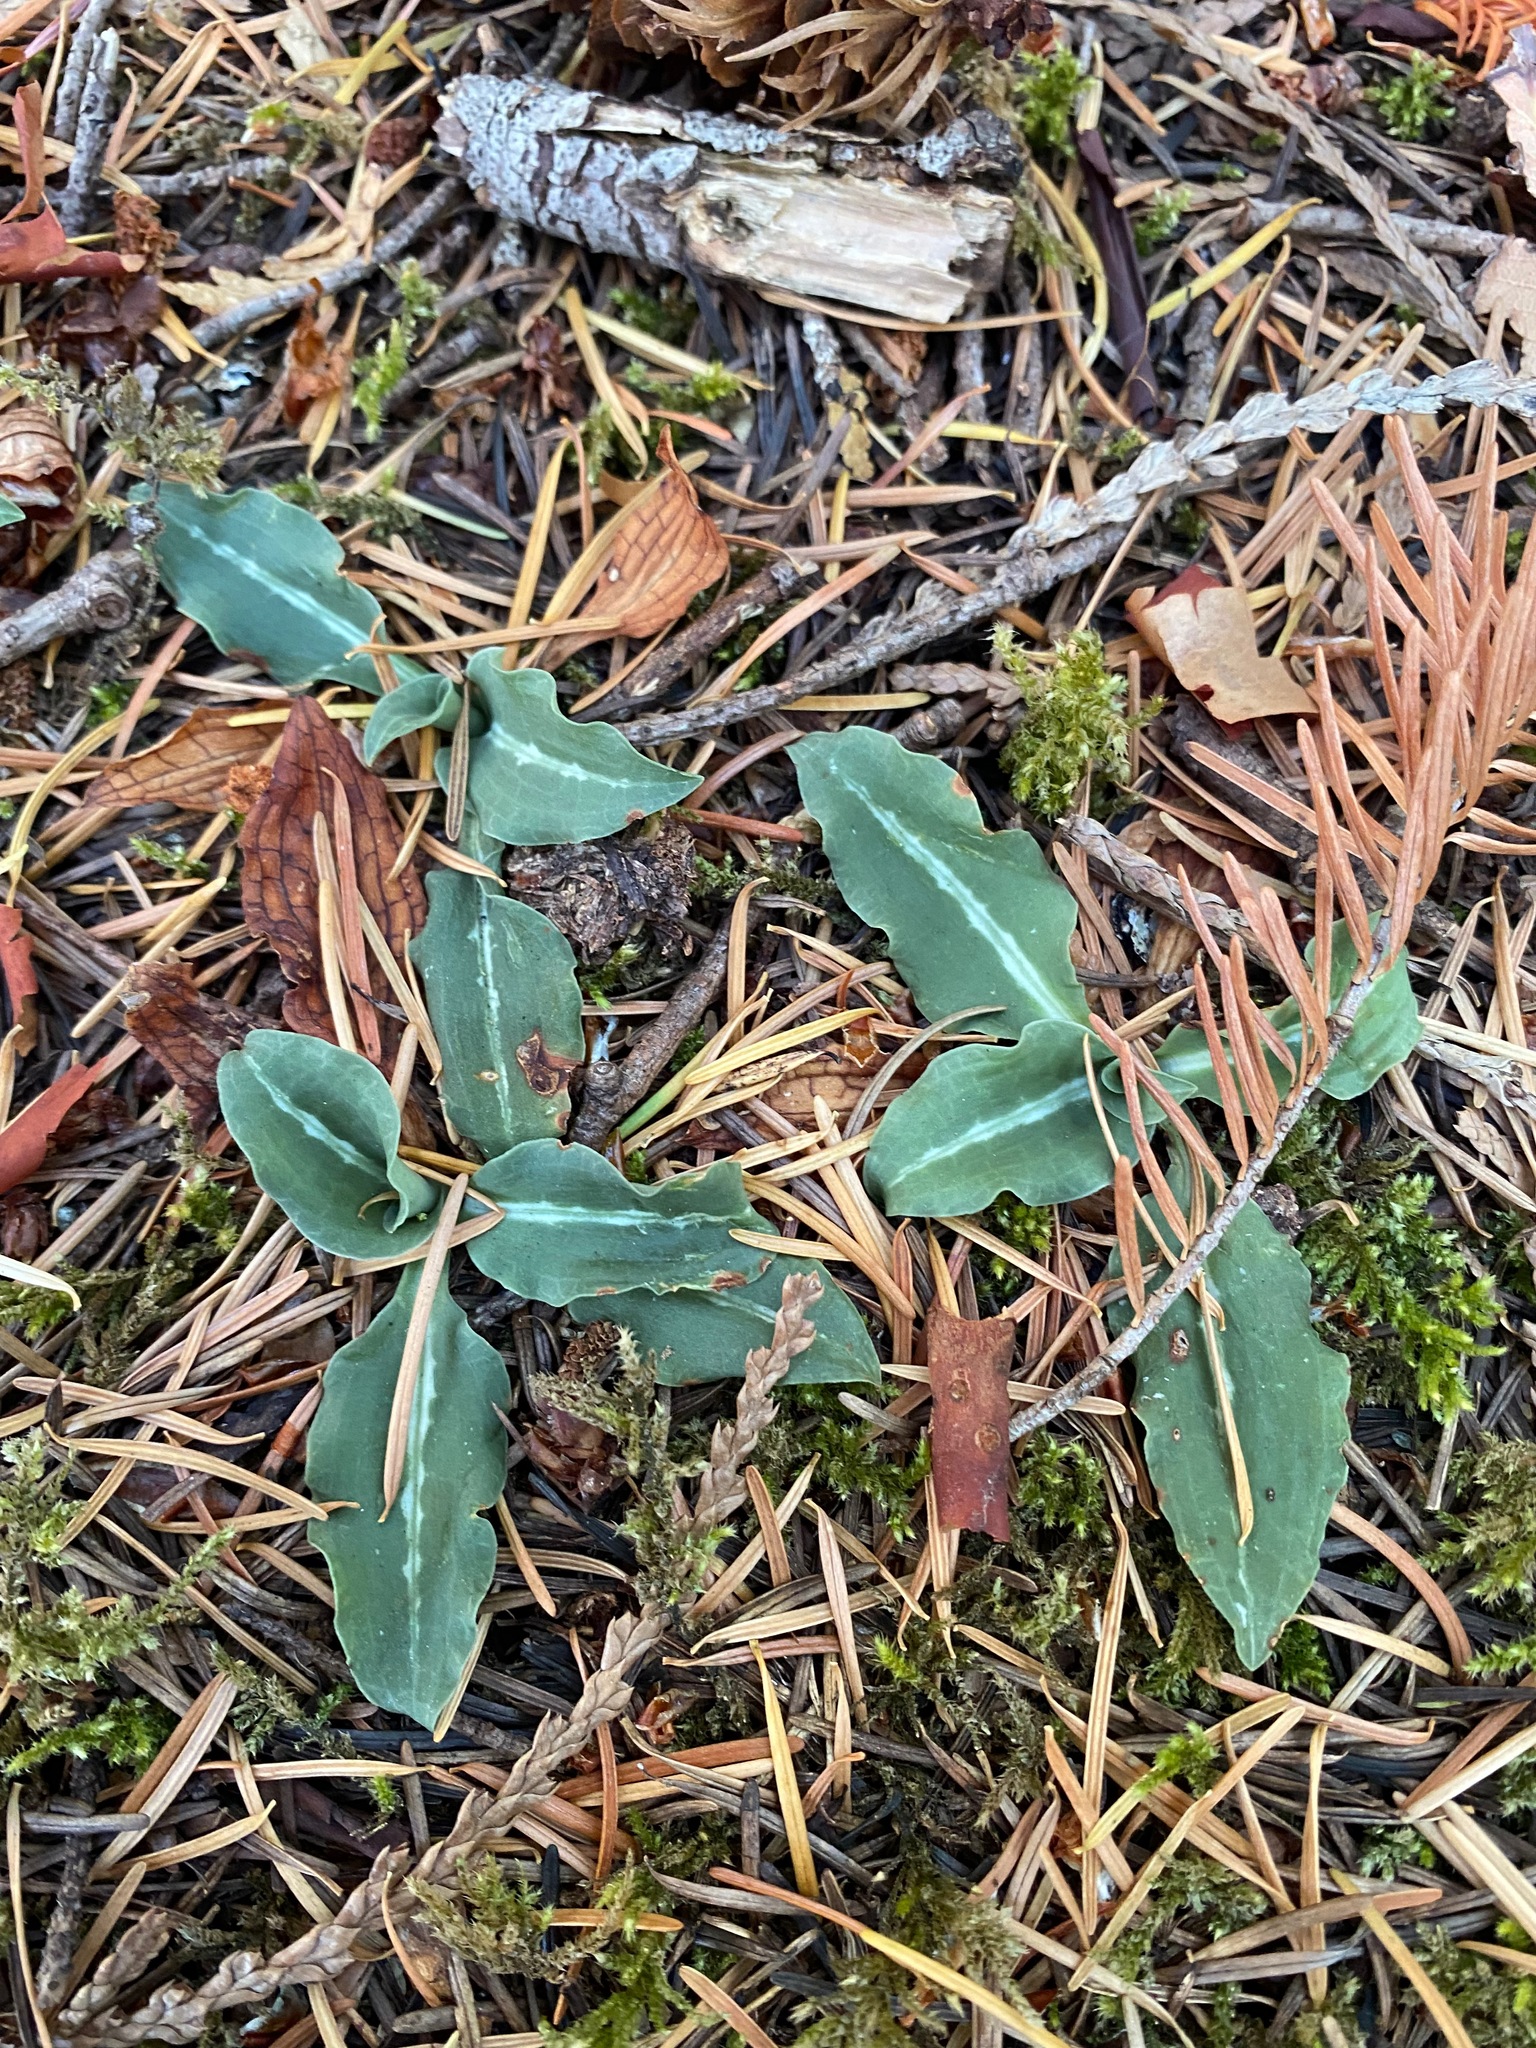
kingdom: Plantae
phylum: Tracheophyta
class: Liliopsida
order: Asparagales
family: Orchidaceae
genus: Goodyera
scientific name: Goodyera oblongifolia
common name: Giant rattlesnake-plantain
